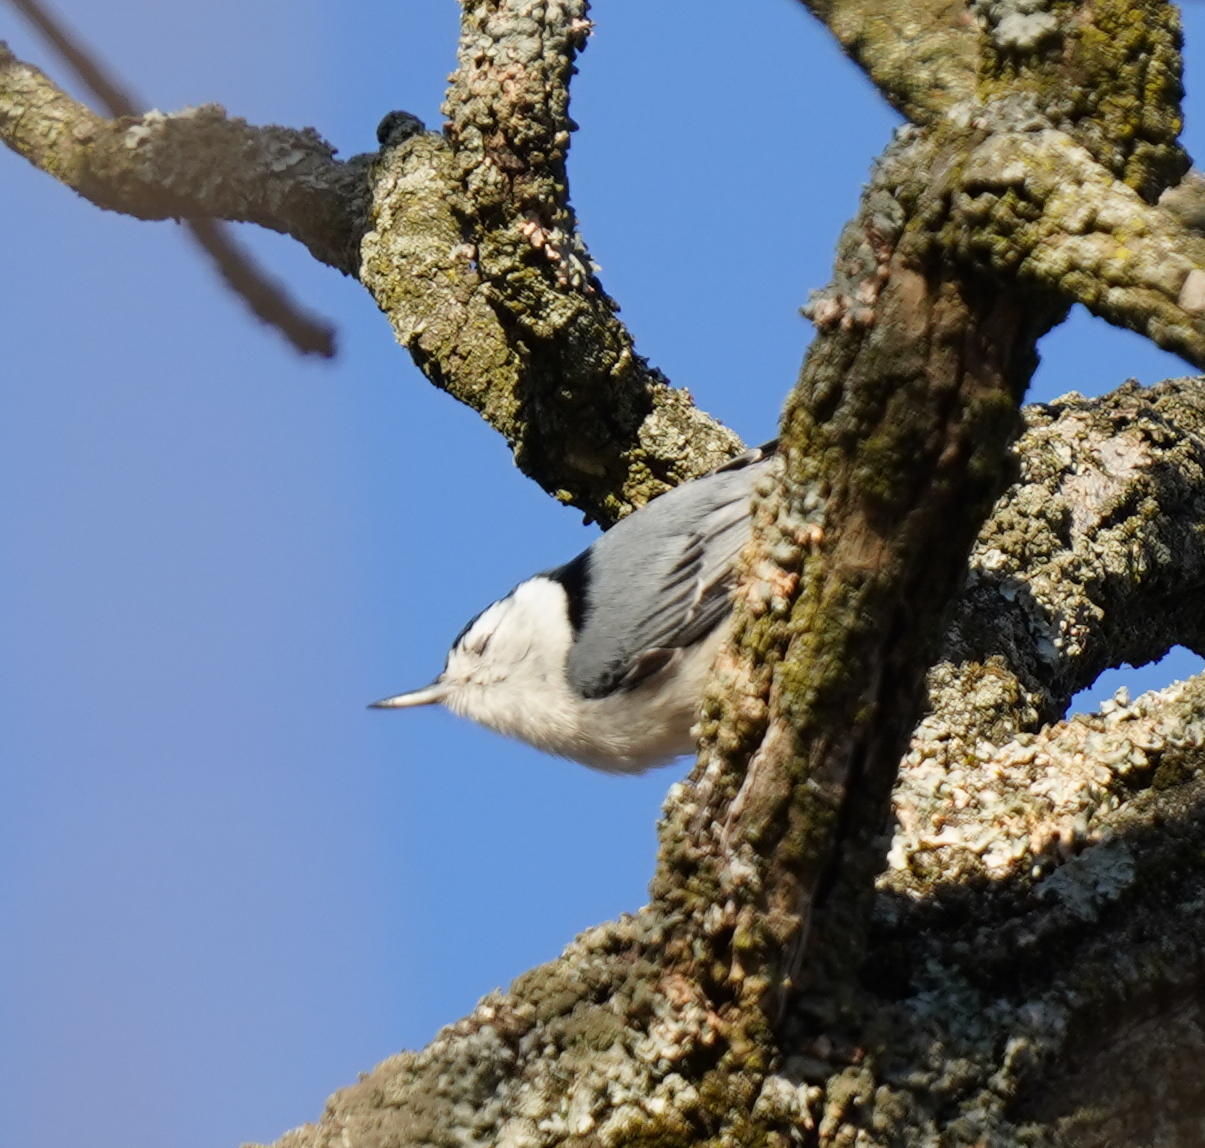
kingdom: Animalia
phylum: Chordata
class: Aves
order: Passeriformes
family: Sittidae
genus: Sitta
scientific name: Sitta carolinensis
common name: White-breasted nuthatch
